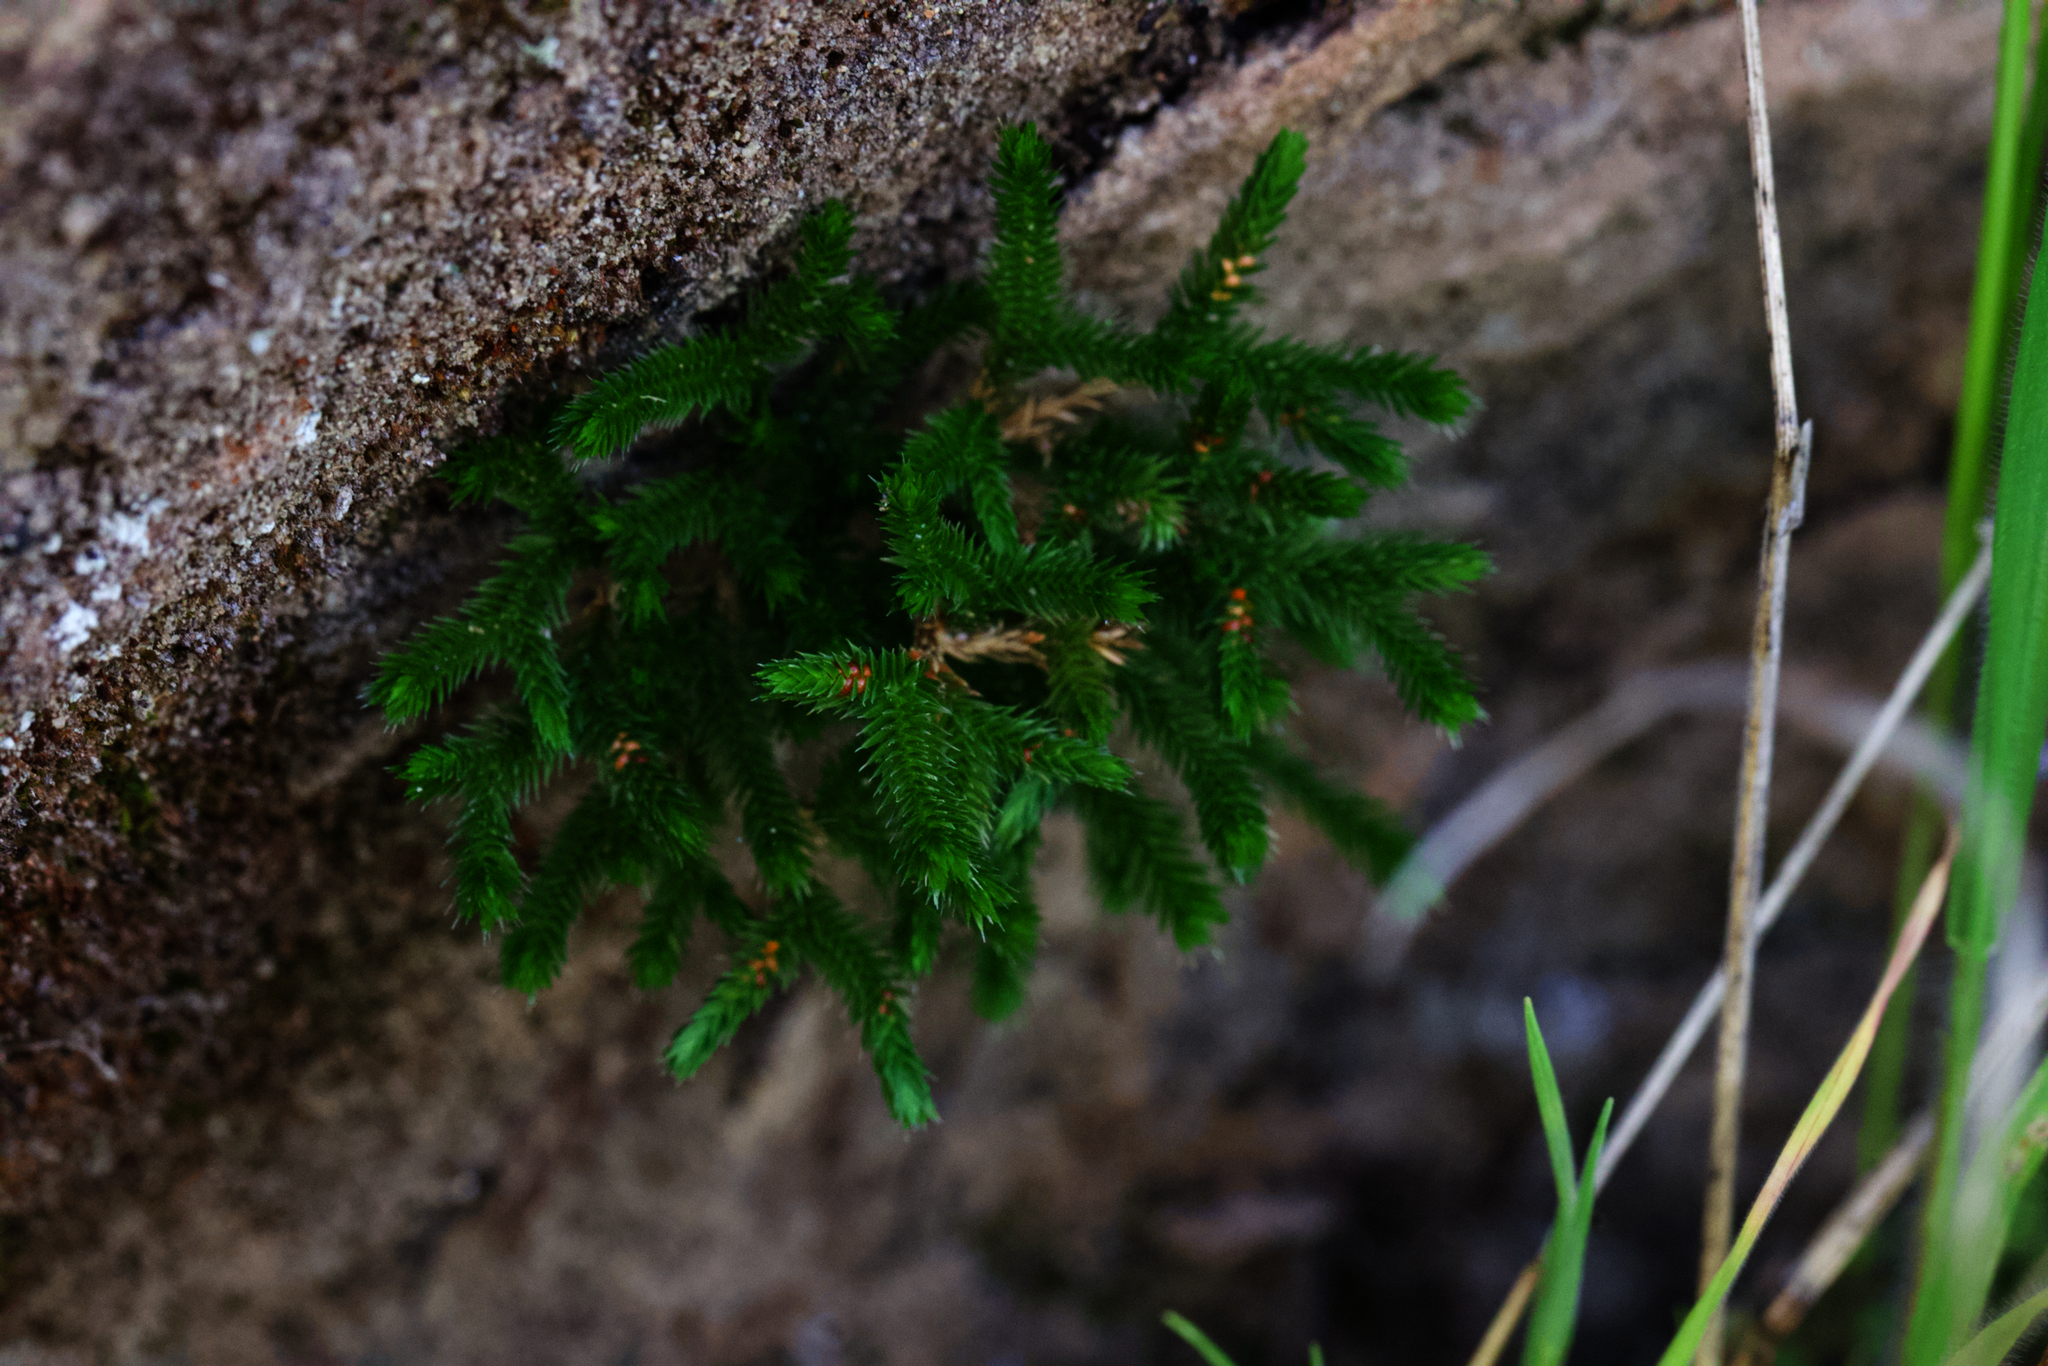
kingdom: Plantae
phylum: Tracheophyta
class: Lycopodiopsida
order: Selaginellales
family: Selaginellaceae
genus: Selaginella
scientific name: Selaginella bigelovii
